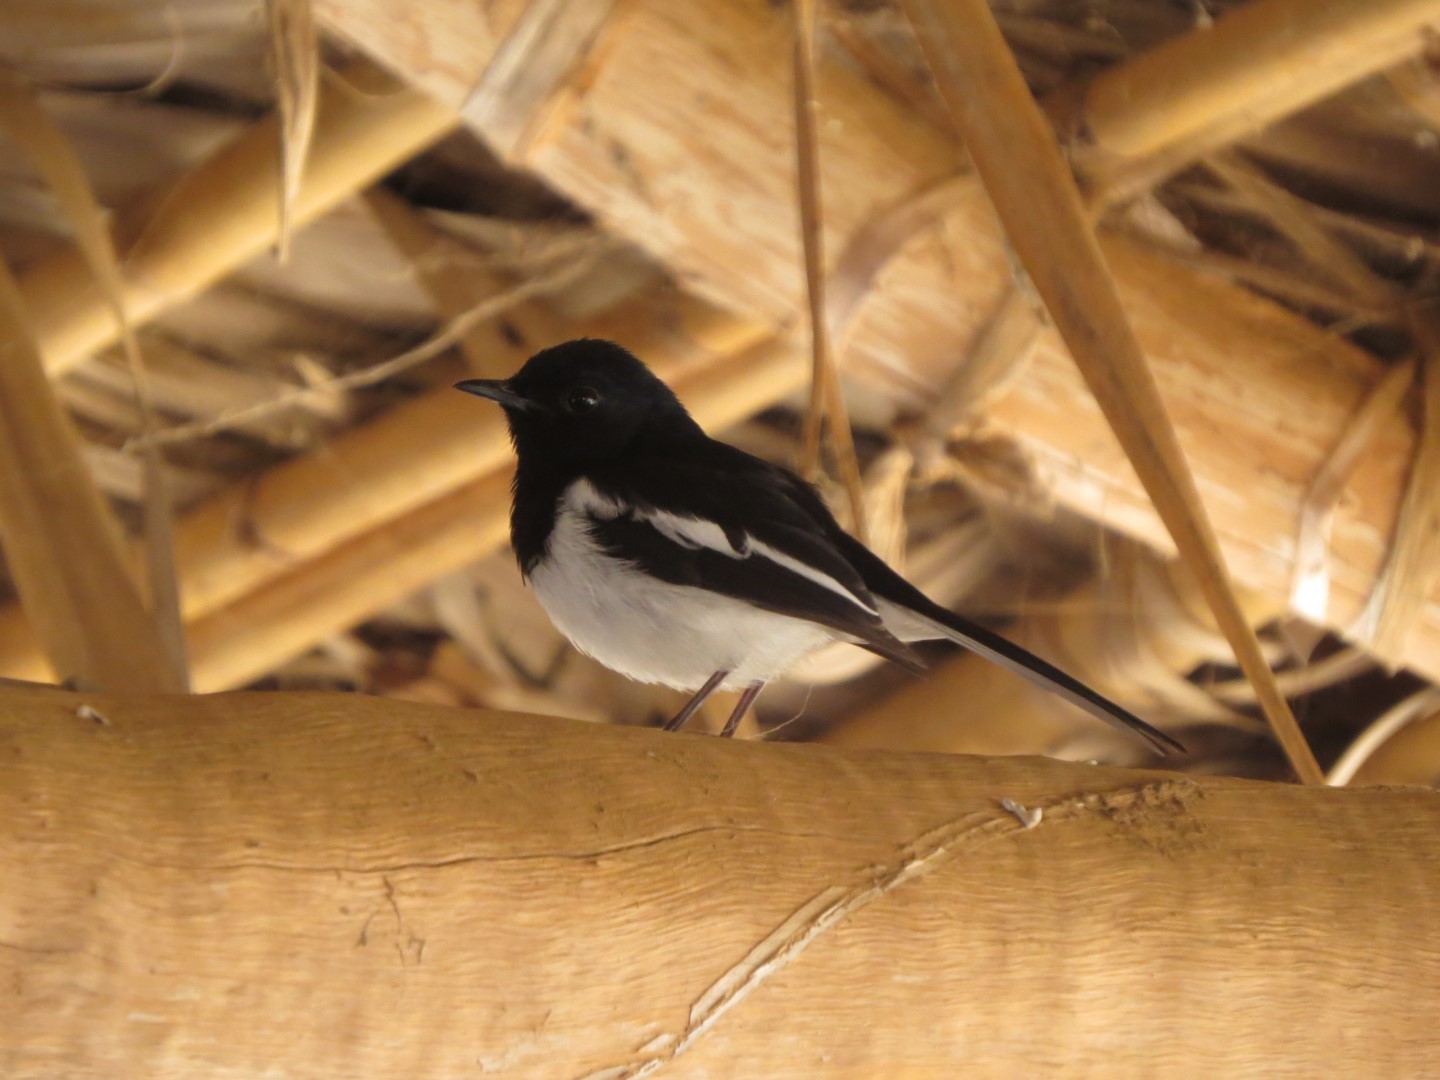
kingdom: Animalia
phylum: Chordata
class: Aves
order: Passeriformes
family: Muscicapidae
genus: Copsychus
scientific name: Copsychus albospecularis
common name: Madagascar magpie-robin
